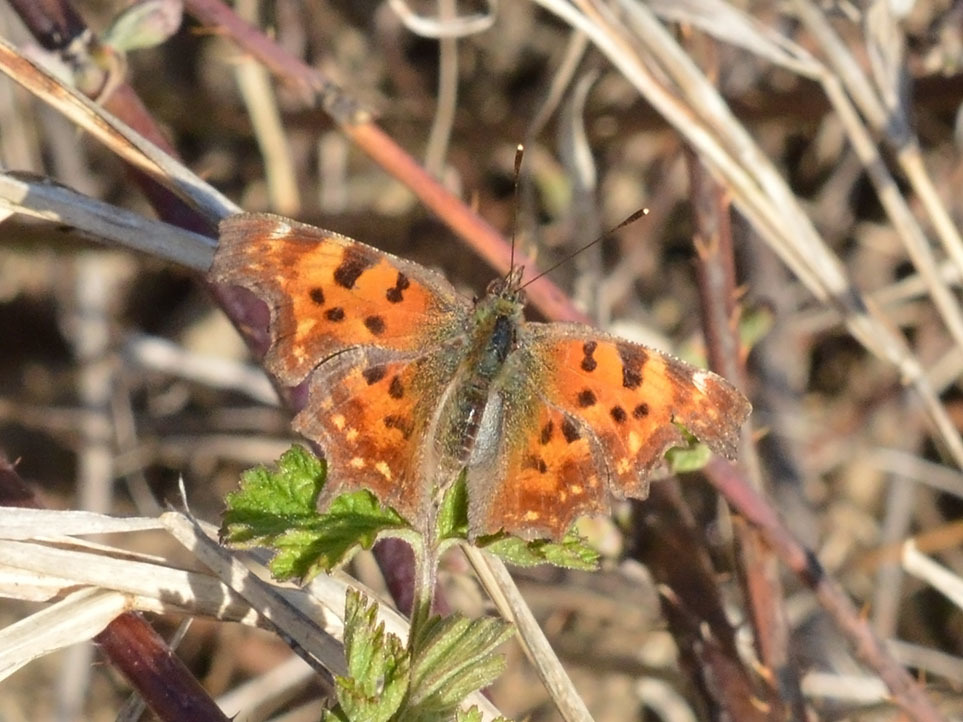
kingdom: Animalia
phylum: Arthropoda
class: Insecta
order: Lepidoptera
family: Nymphalidae
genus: Polygonia
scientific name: Polygonia c-album
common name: Comma
